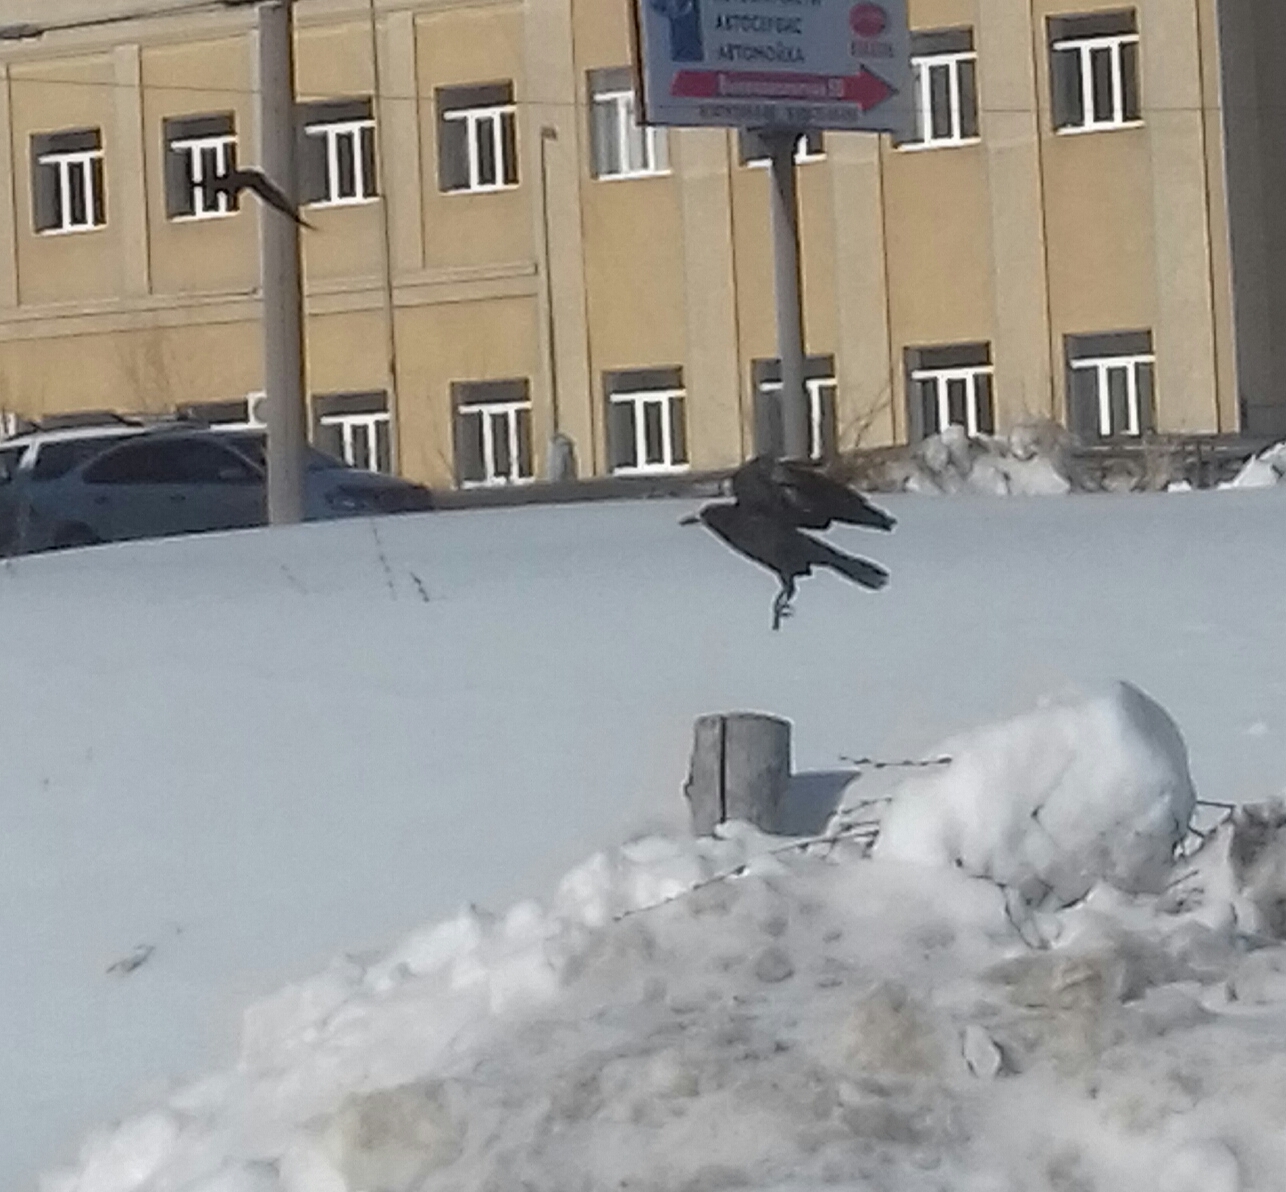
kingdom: Animalia
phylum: Chordata
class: Aves
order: Passeriformes
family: Corvidae
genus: Corvus
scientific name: Corvus frugilegus
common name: Rook
